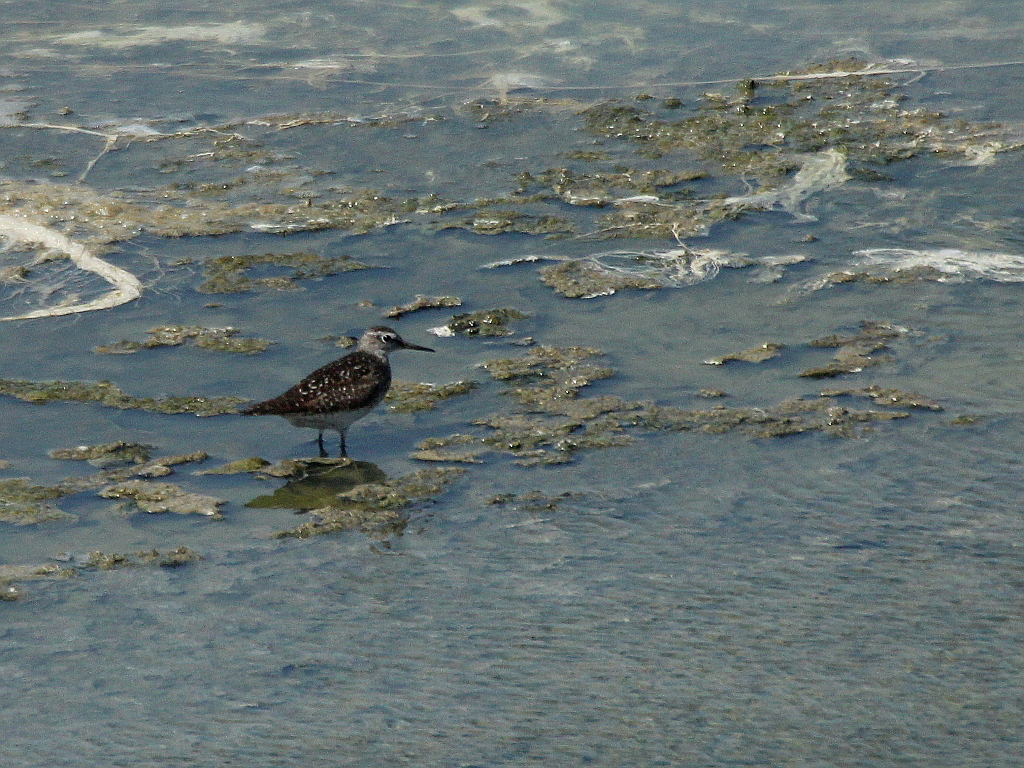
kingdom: Animalia
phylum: Chordata
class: Aves
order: Charadriiformes
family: Scolopacidae
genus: Tringa
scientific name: Tringa glareola
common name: Wood sandpiper
